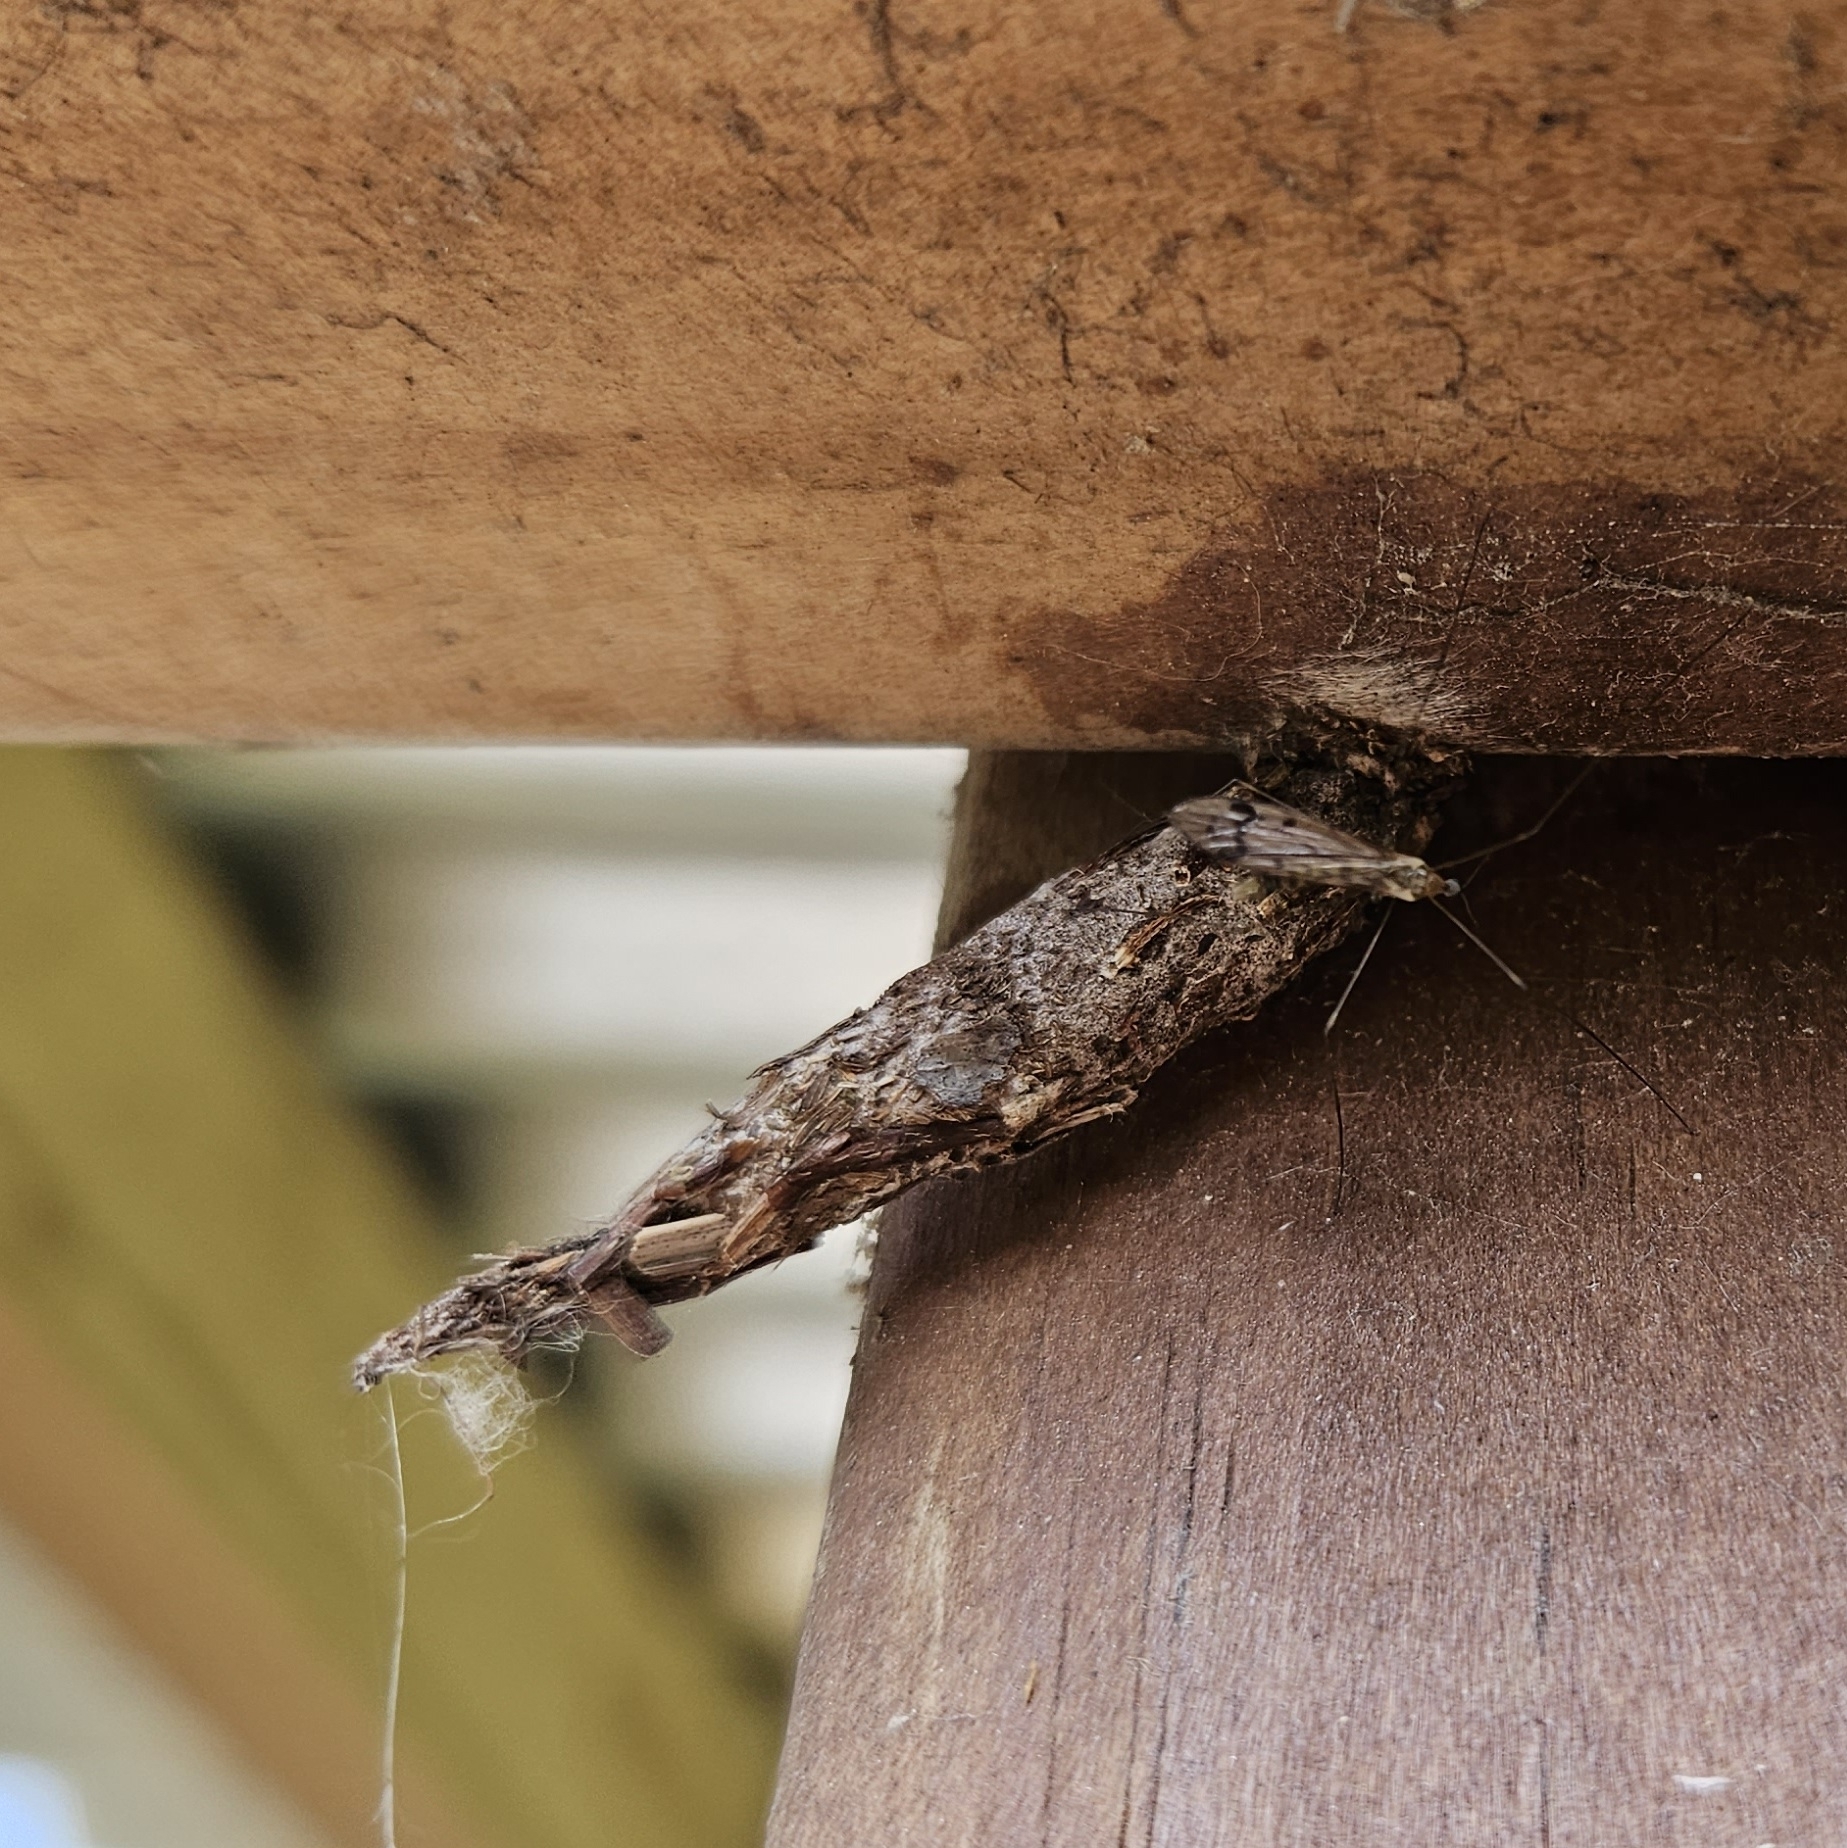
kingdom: Animalia
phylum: Arthropoda
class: Insecta
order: Lepidoptera
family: Psychidae
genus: Liothula
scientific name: Liothula omnivora
